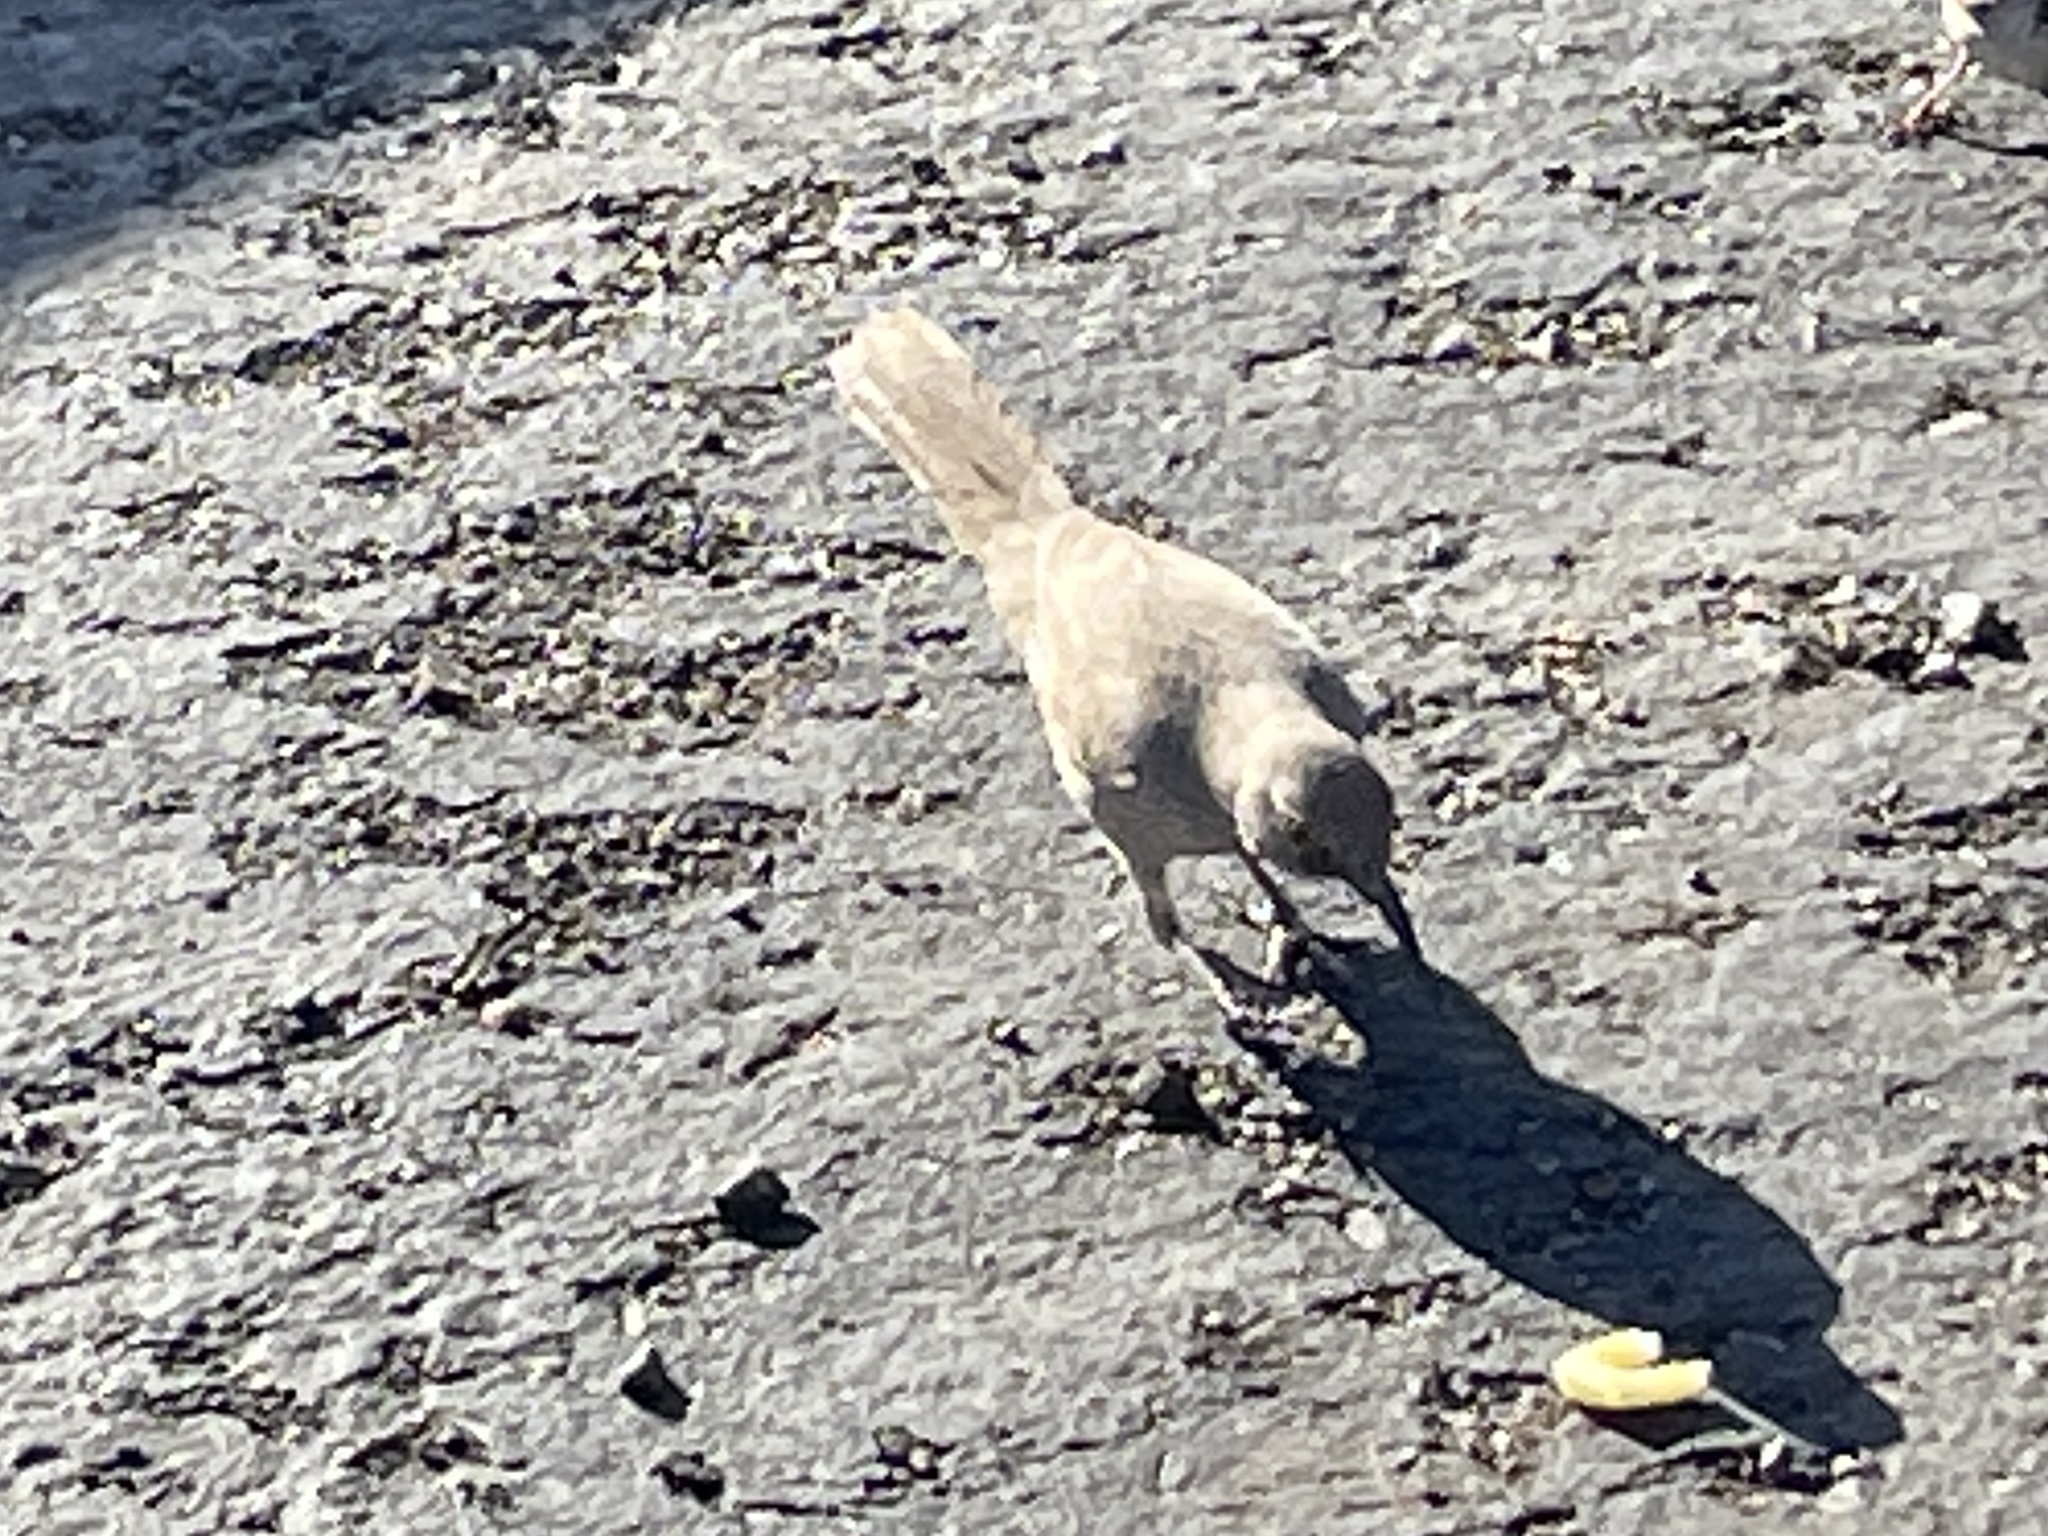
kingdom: Animalia
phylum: Chordata
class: Aves
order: Passeriformes
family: Mimidae
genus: Toxostoma
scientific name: Toxostoma curvirostre
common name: Curve-billed thrasher
